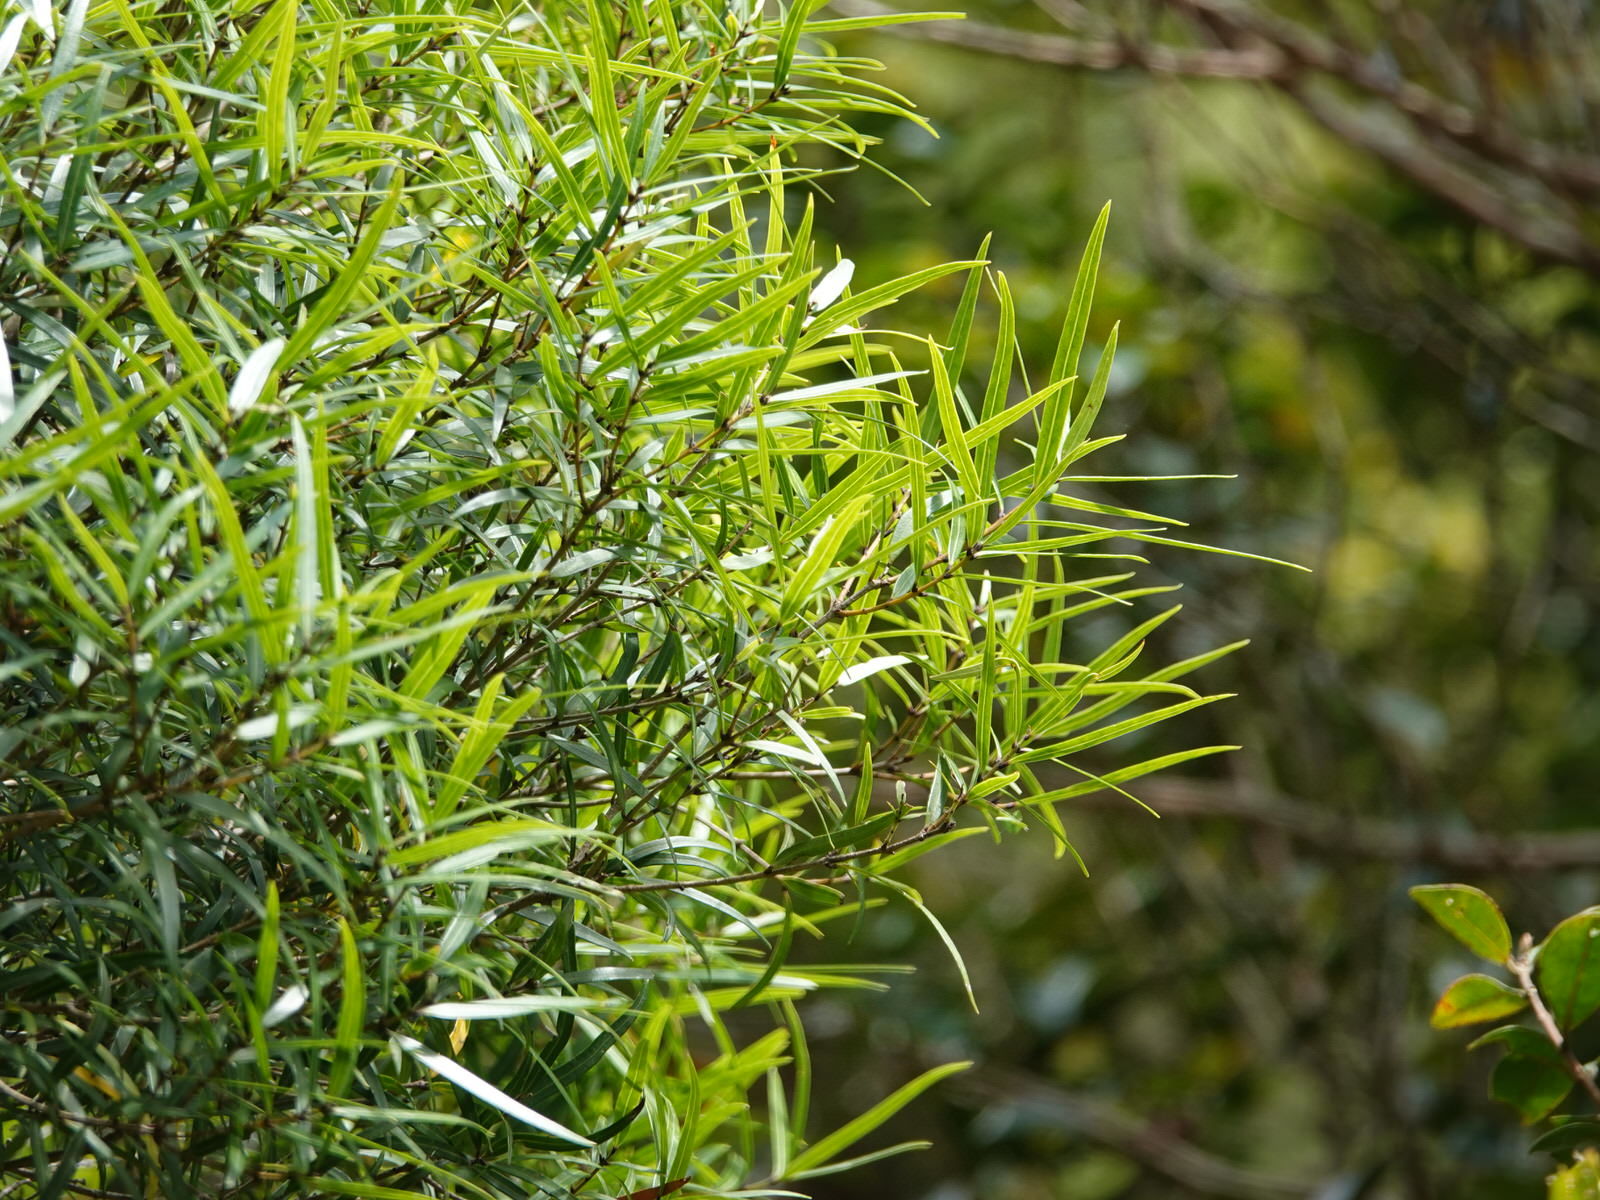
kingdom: Plantae
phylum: Tracheophyta
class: Magnoliopsida
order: Lamiales
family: Oleaceae
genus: Nestegis
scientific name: Nestegis montana
